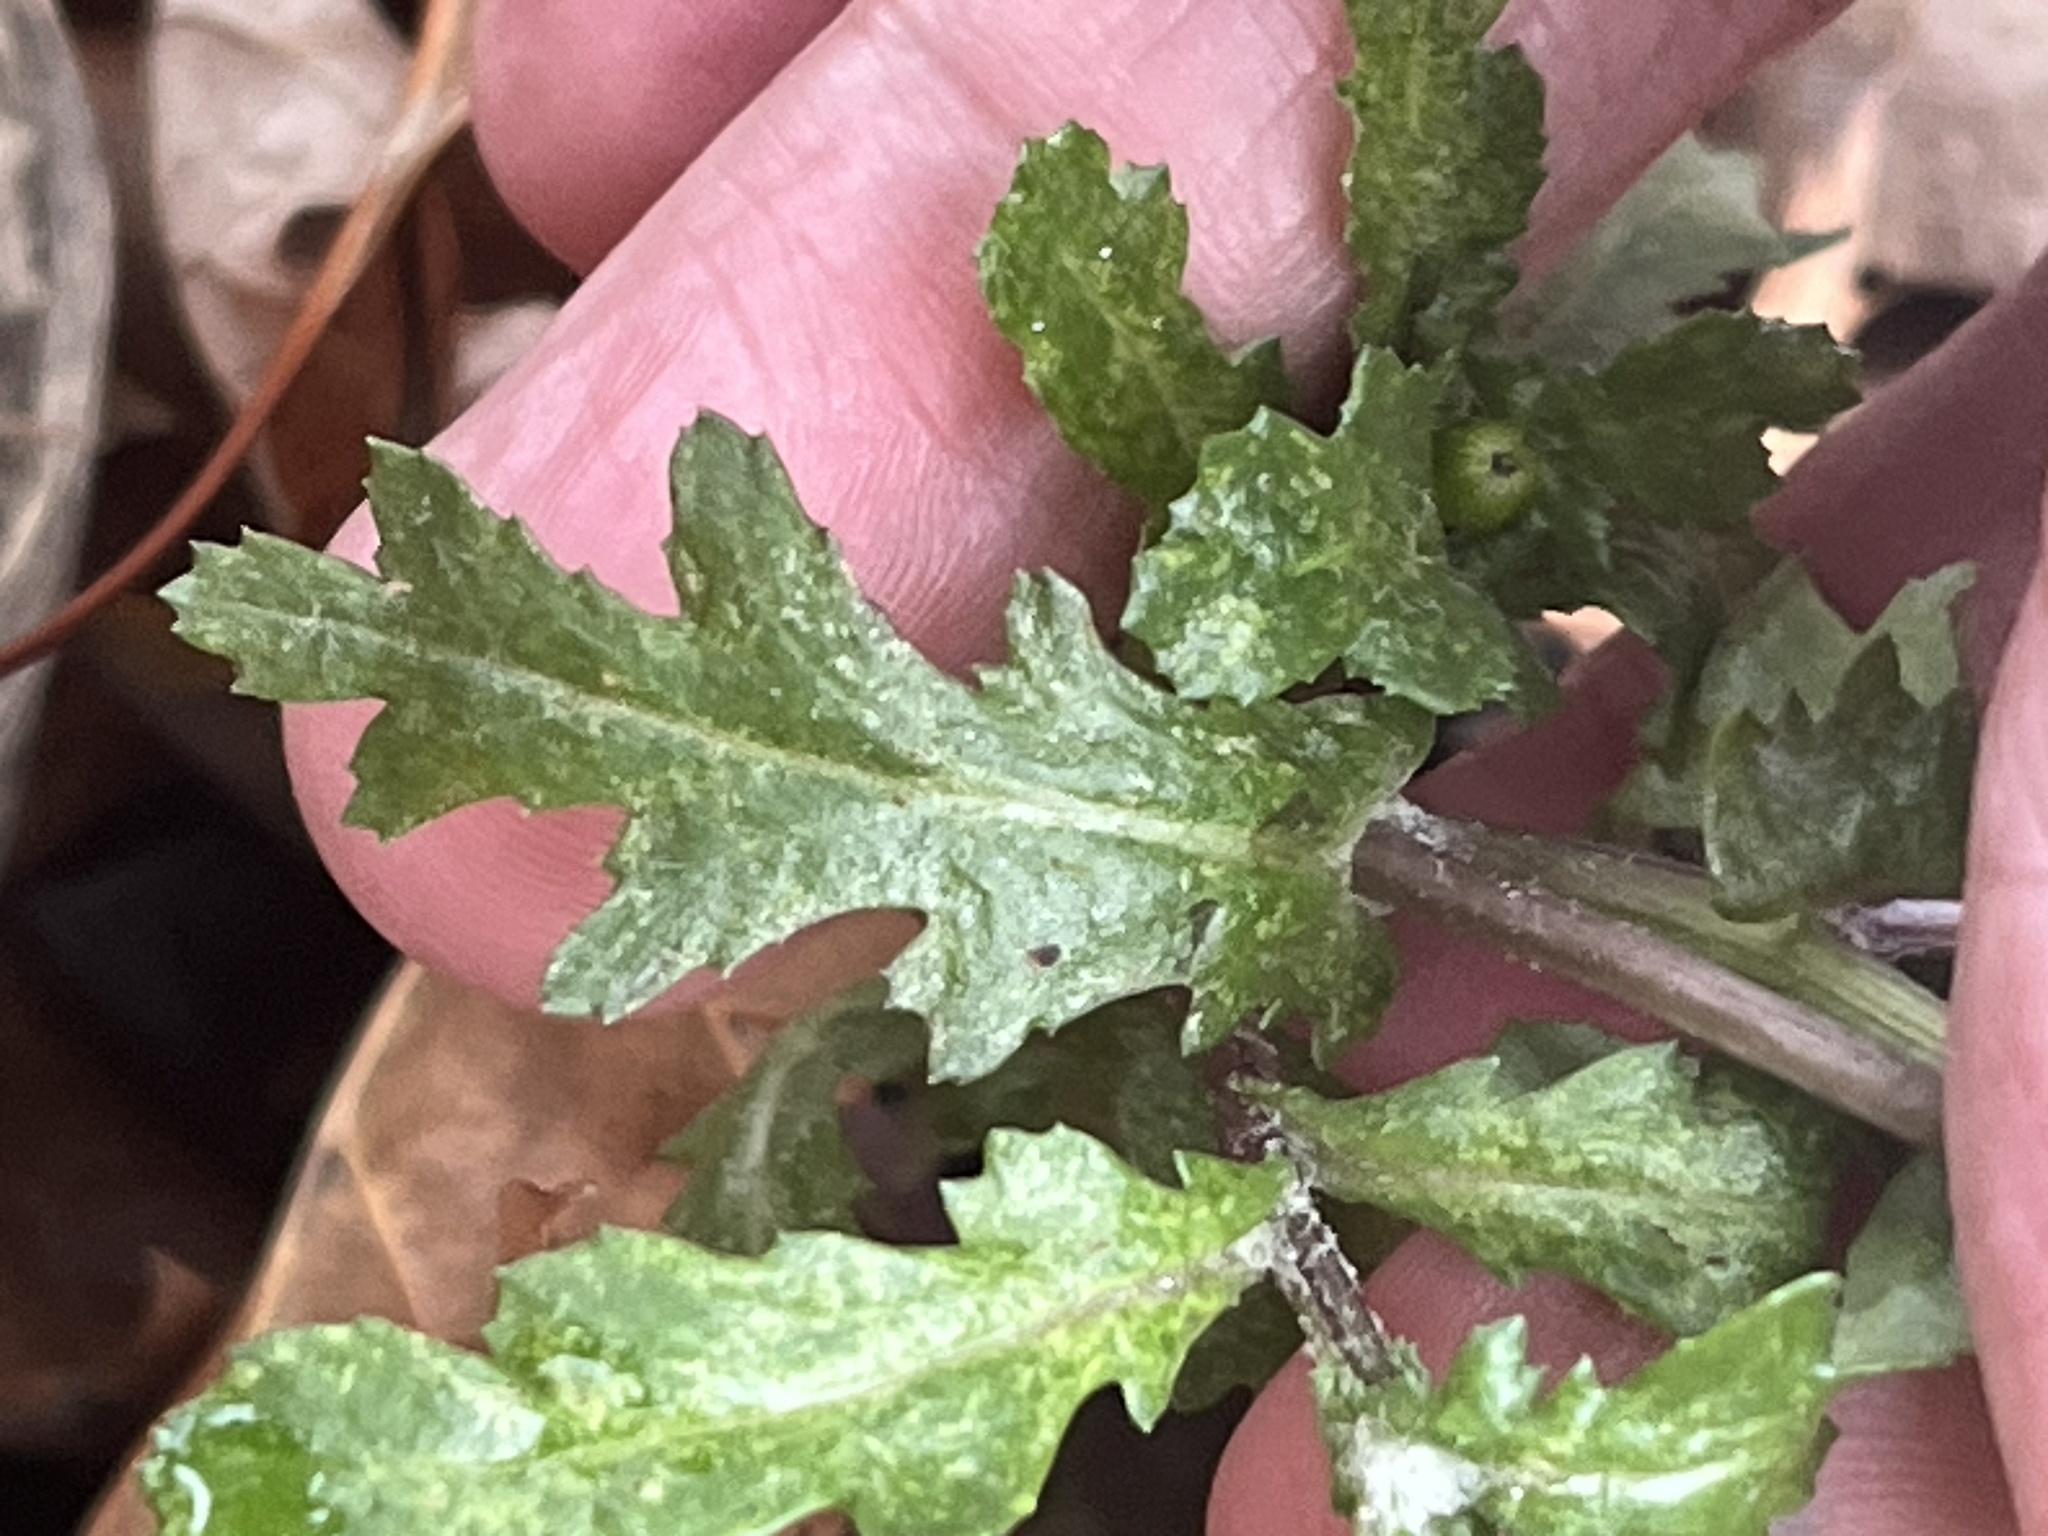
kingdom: Plantae
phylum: Tracheophyta
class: Magnoliopsida
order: Asterales
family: Asteraceae
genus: Senecio
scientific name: Senecio vulgaris
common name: Old-man-in-the-spring
